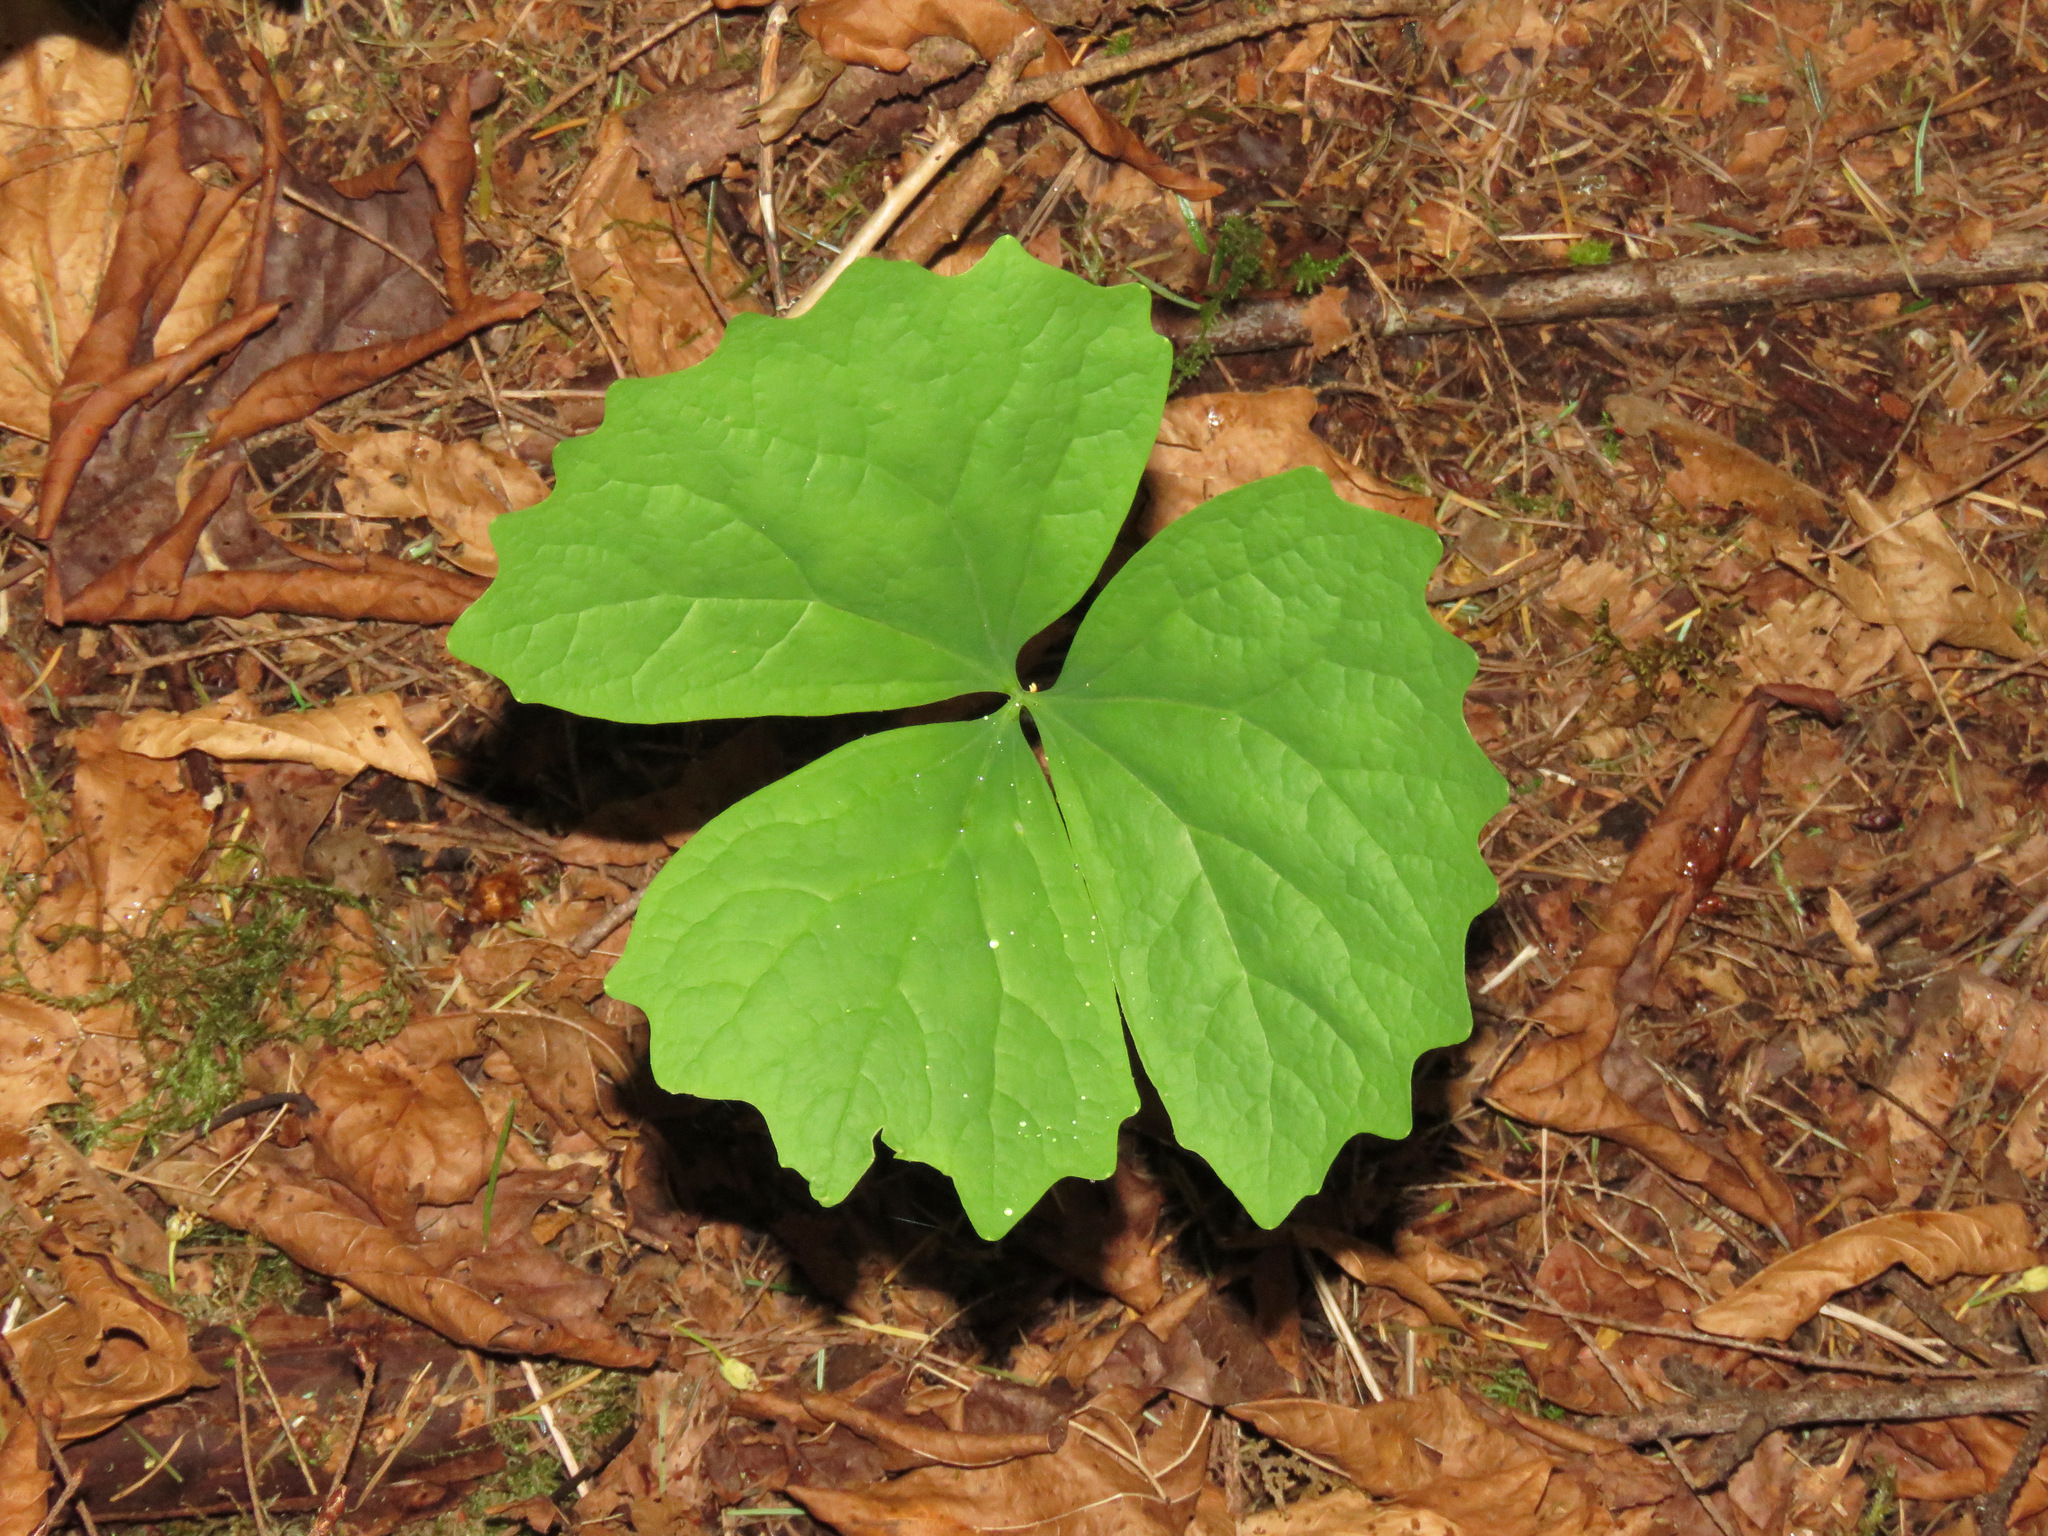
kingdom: Plantae
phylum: Tracheophyta
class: Magnoliopsida
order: Ranunculales
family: Berberidaceae
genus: Achlys
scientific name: Achlys triphylla
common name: Vanilla-leaf
